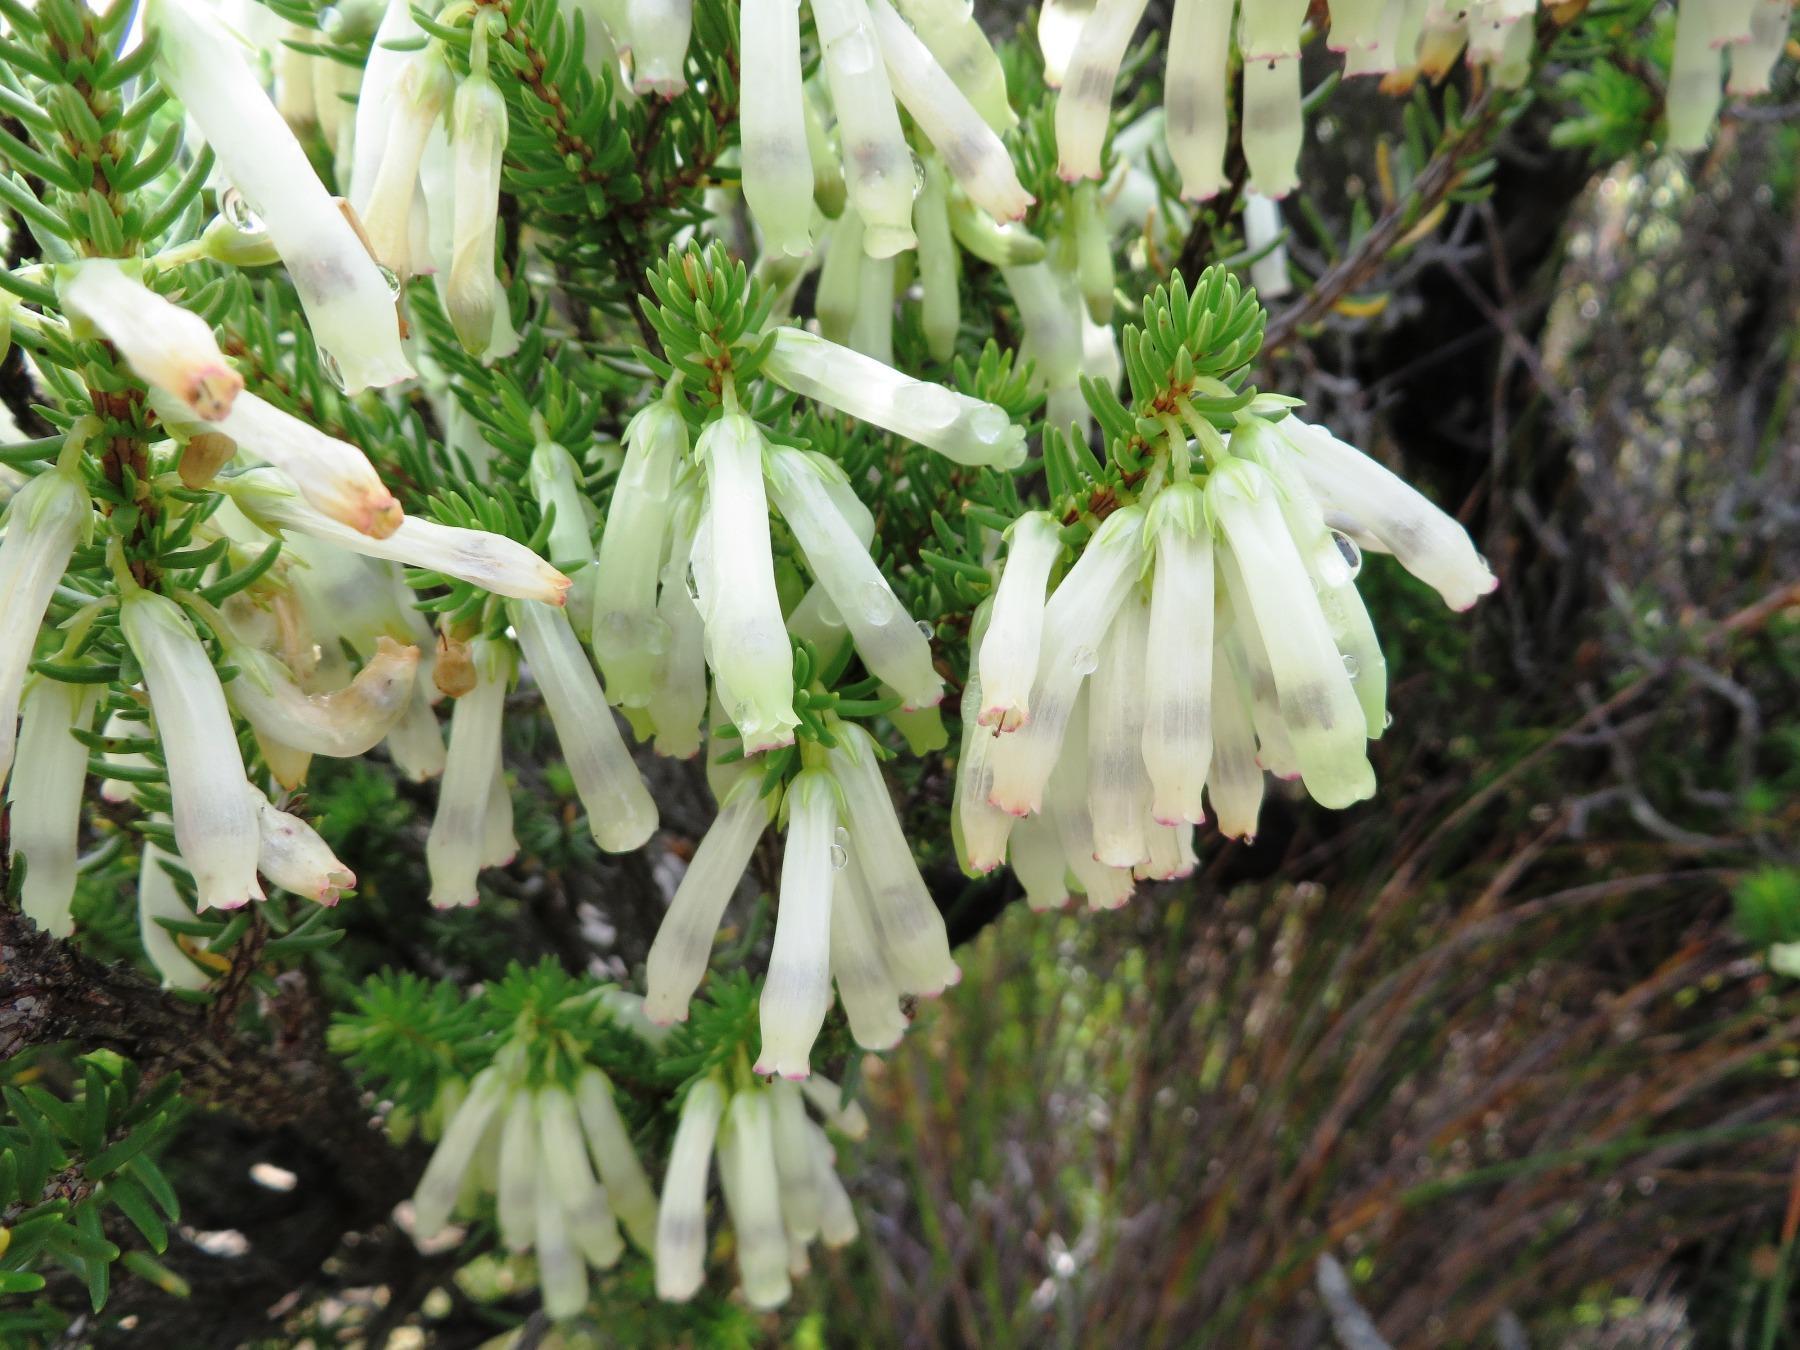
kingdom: Plantae
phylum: Tracheophyta
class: Magnoliopsida
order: Ericales
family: Ericaceae
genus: Erica
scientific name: Erica mammosa
